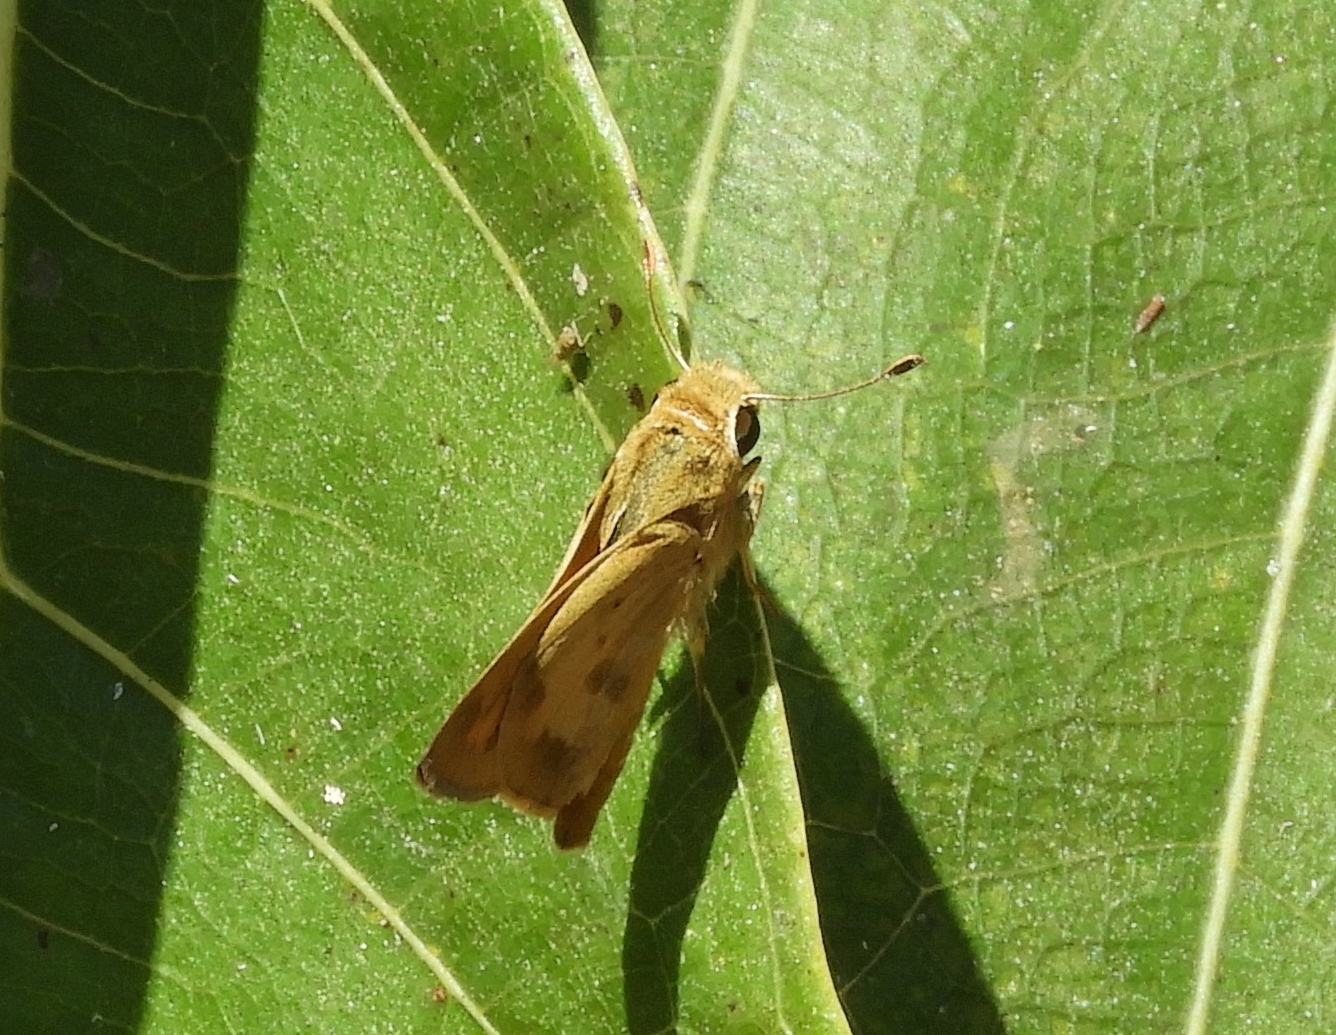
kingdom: Animalia
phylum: Arthropoda
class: Insecta
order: Lepidoptera
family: Hesperiidae
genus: Polites
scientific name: Polites vibex
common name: Whirlabout
